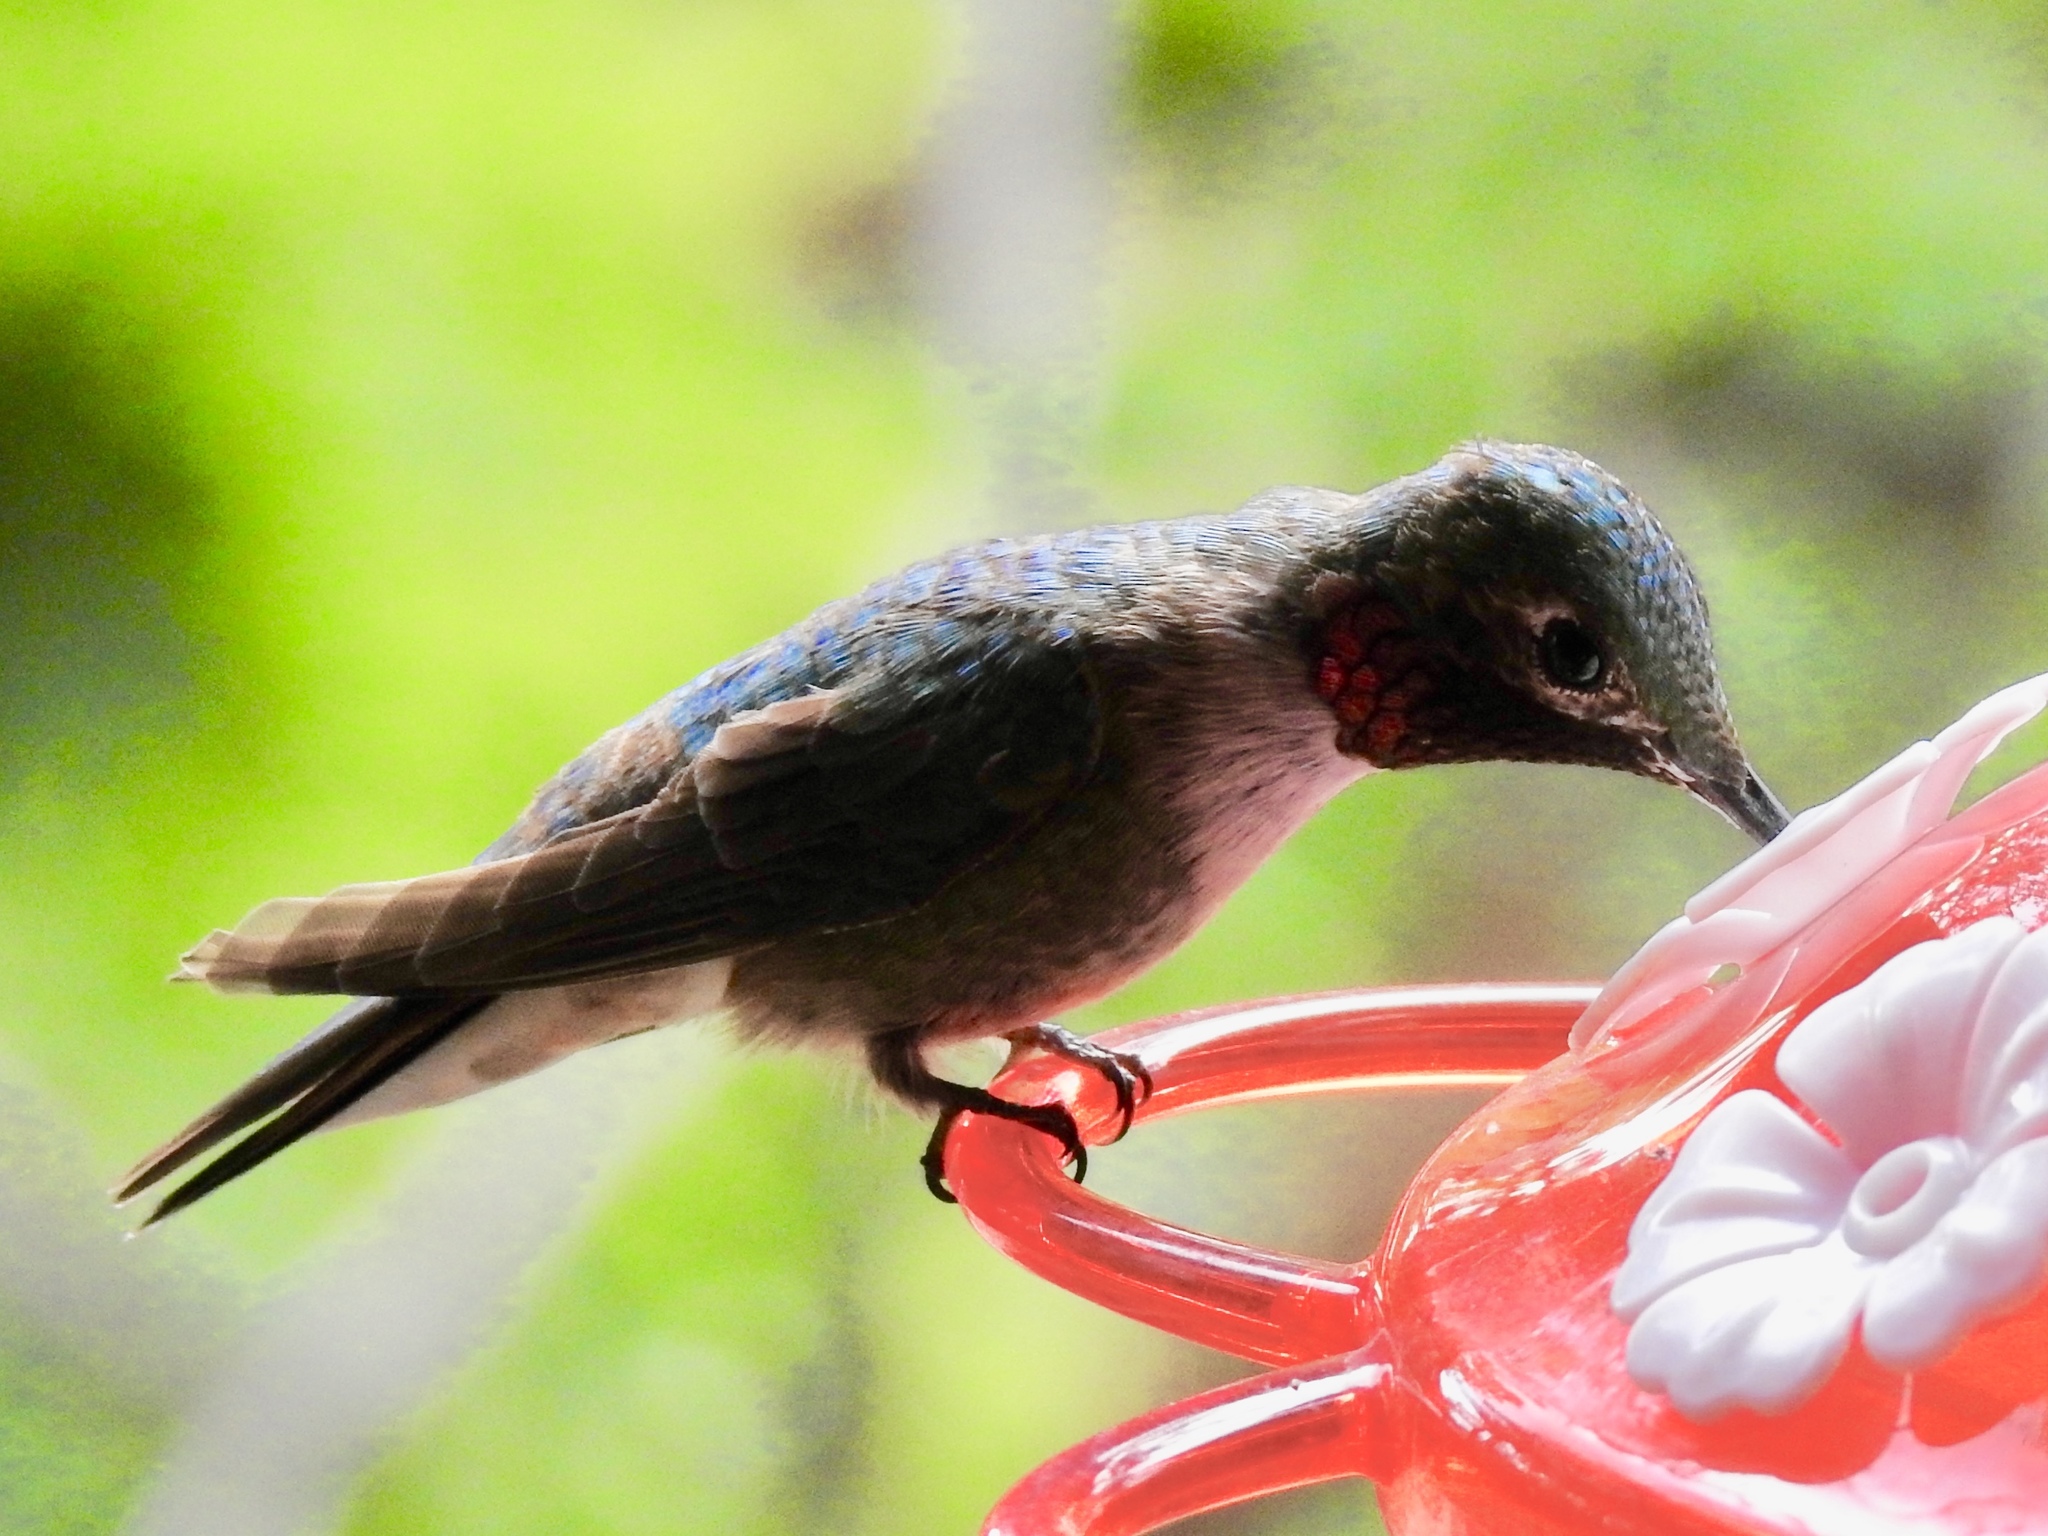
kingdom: Animalia
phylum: Chordata
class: Aves
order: Apodiformes
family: Trochilidae
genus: Selasphorus
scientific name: Selasphorus platycercus
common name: Broad-tailed hummingbird
